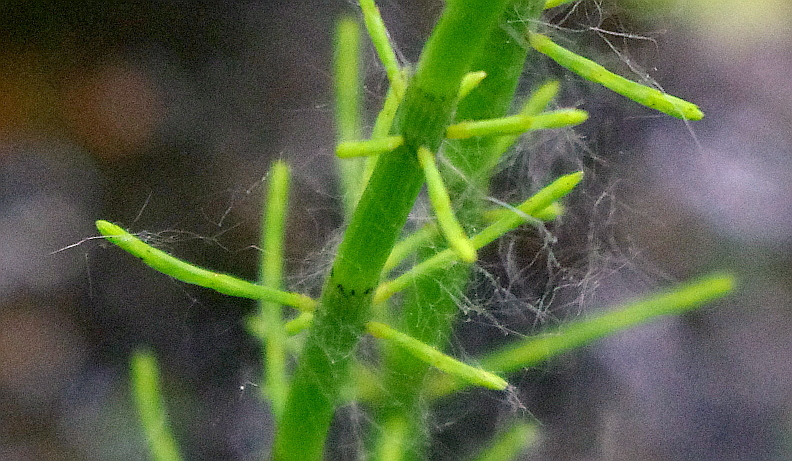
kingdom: Plantae
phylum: Tracheophyta
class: Polypodiopsida
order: Equisetales
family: Equisetaceae
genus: Equisetum
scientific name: Equisetum fluviatile
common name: Water horsetail
